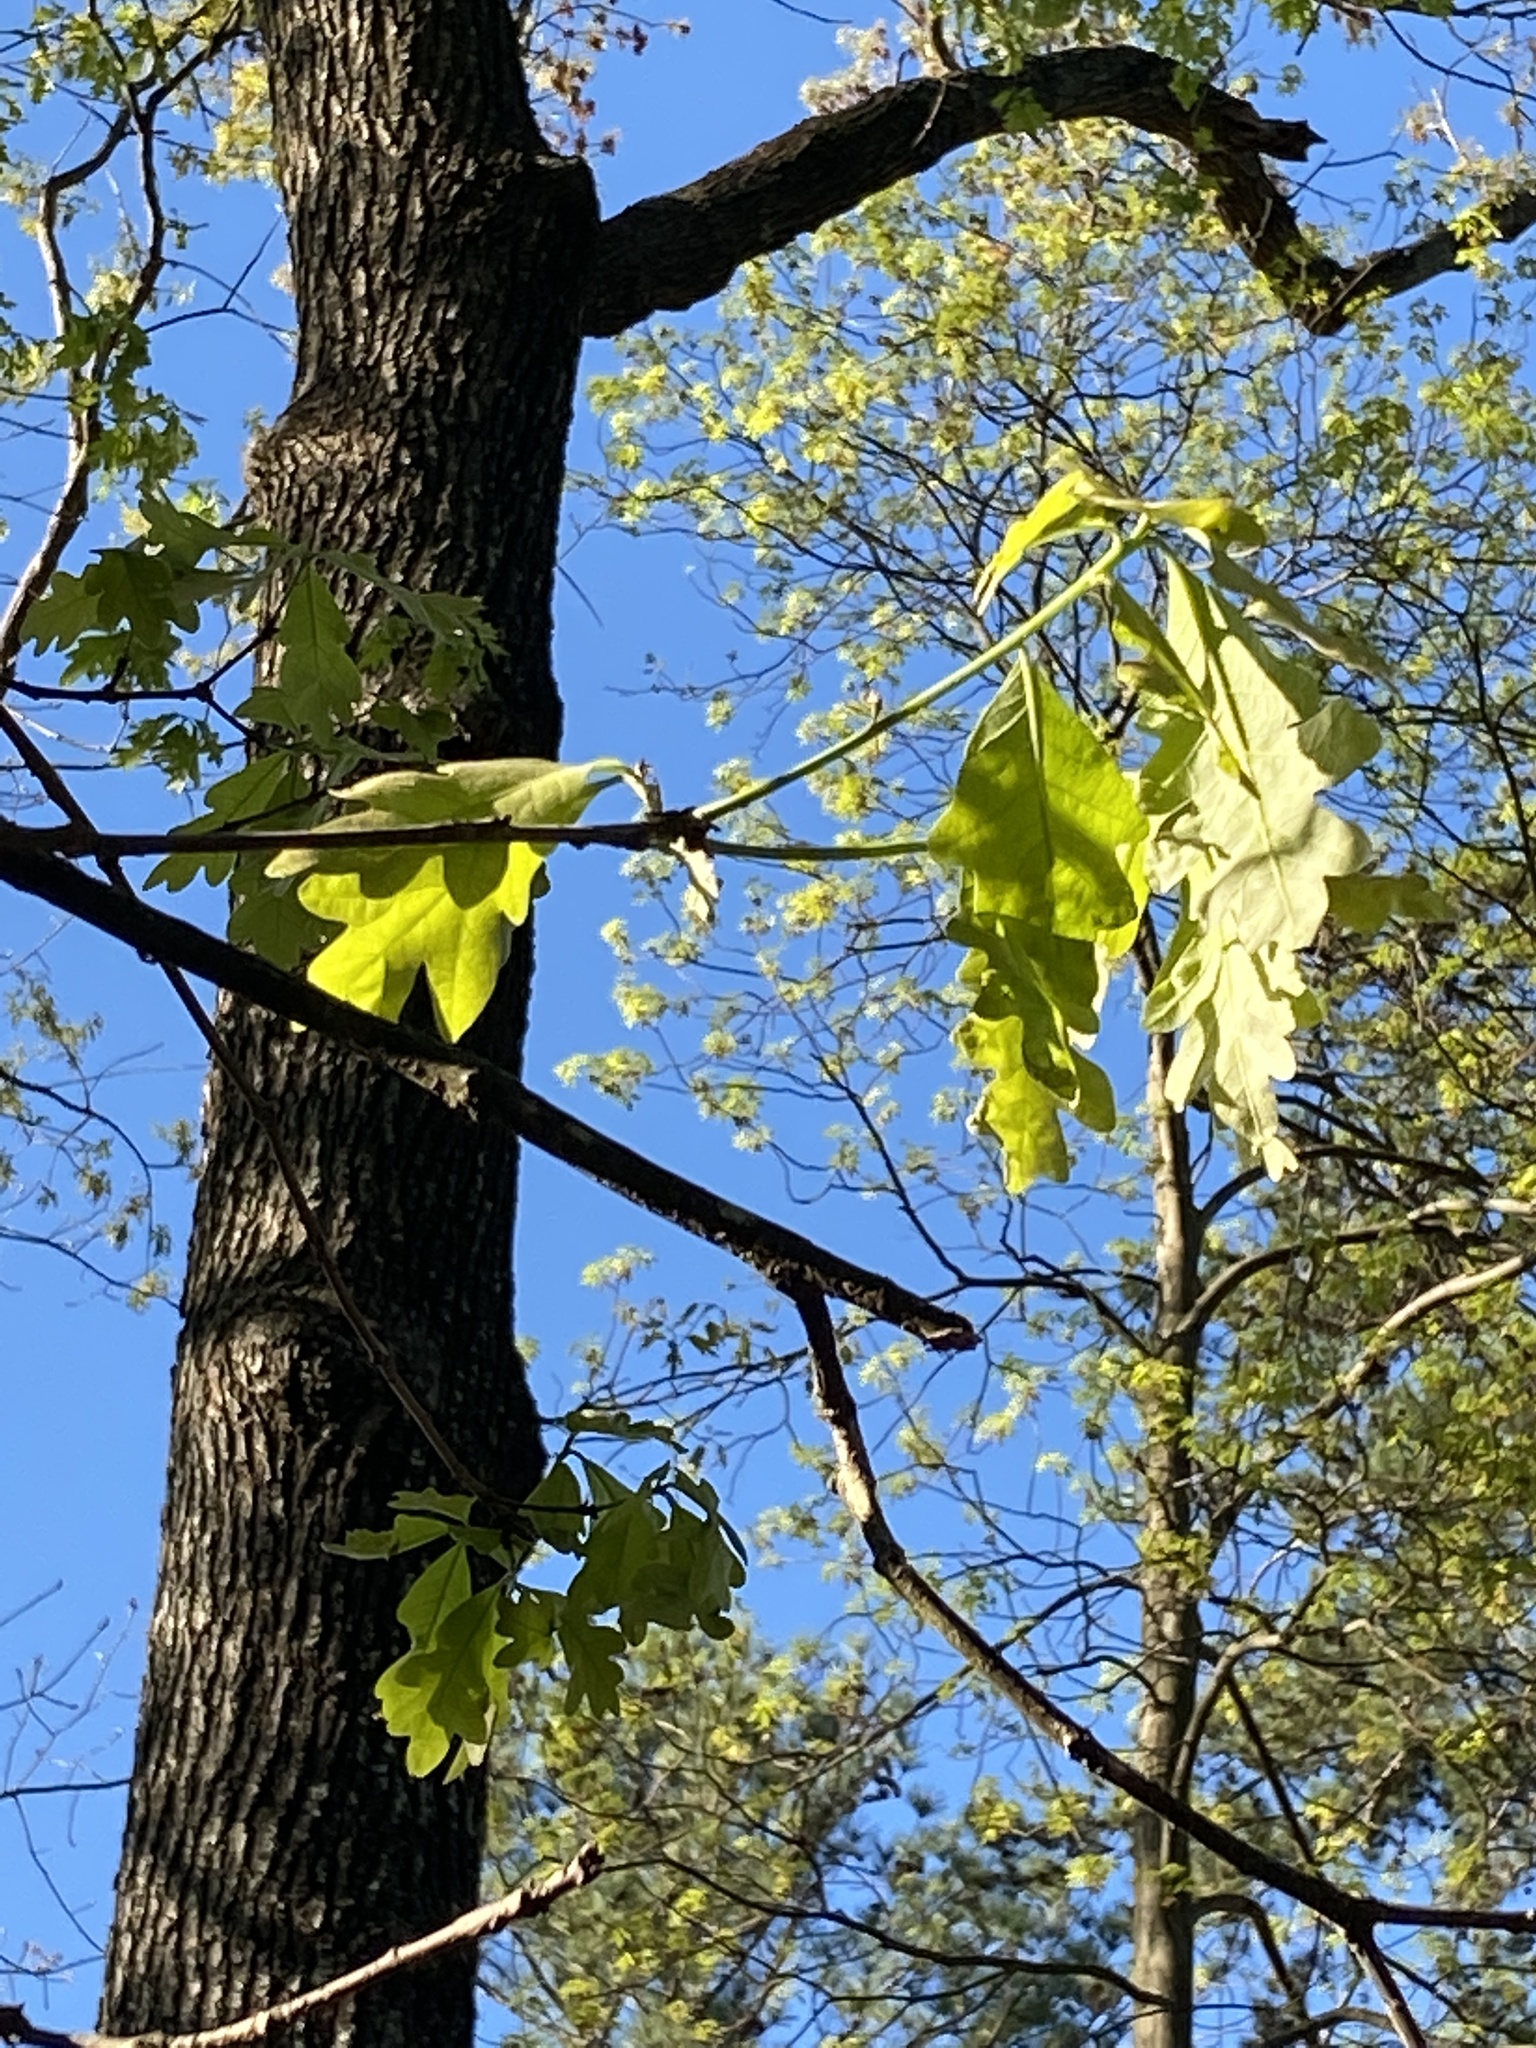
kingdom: Plantae
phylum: Tracheophyta
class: Magnoliopsida
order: Fagales
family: Fagaceae
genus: Quercus
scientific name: Quercus alba
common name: White oak
